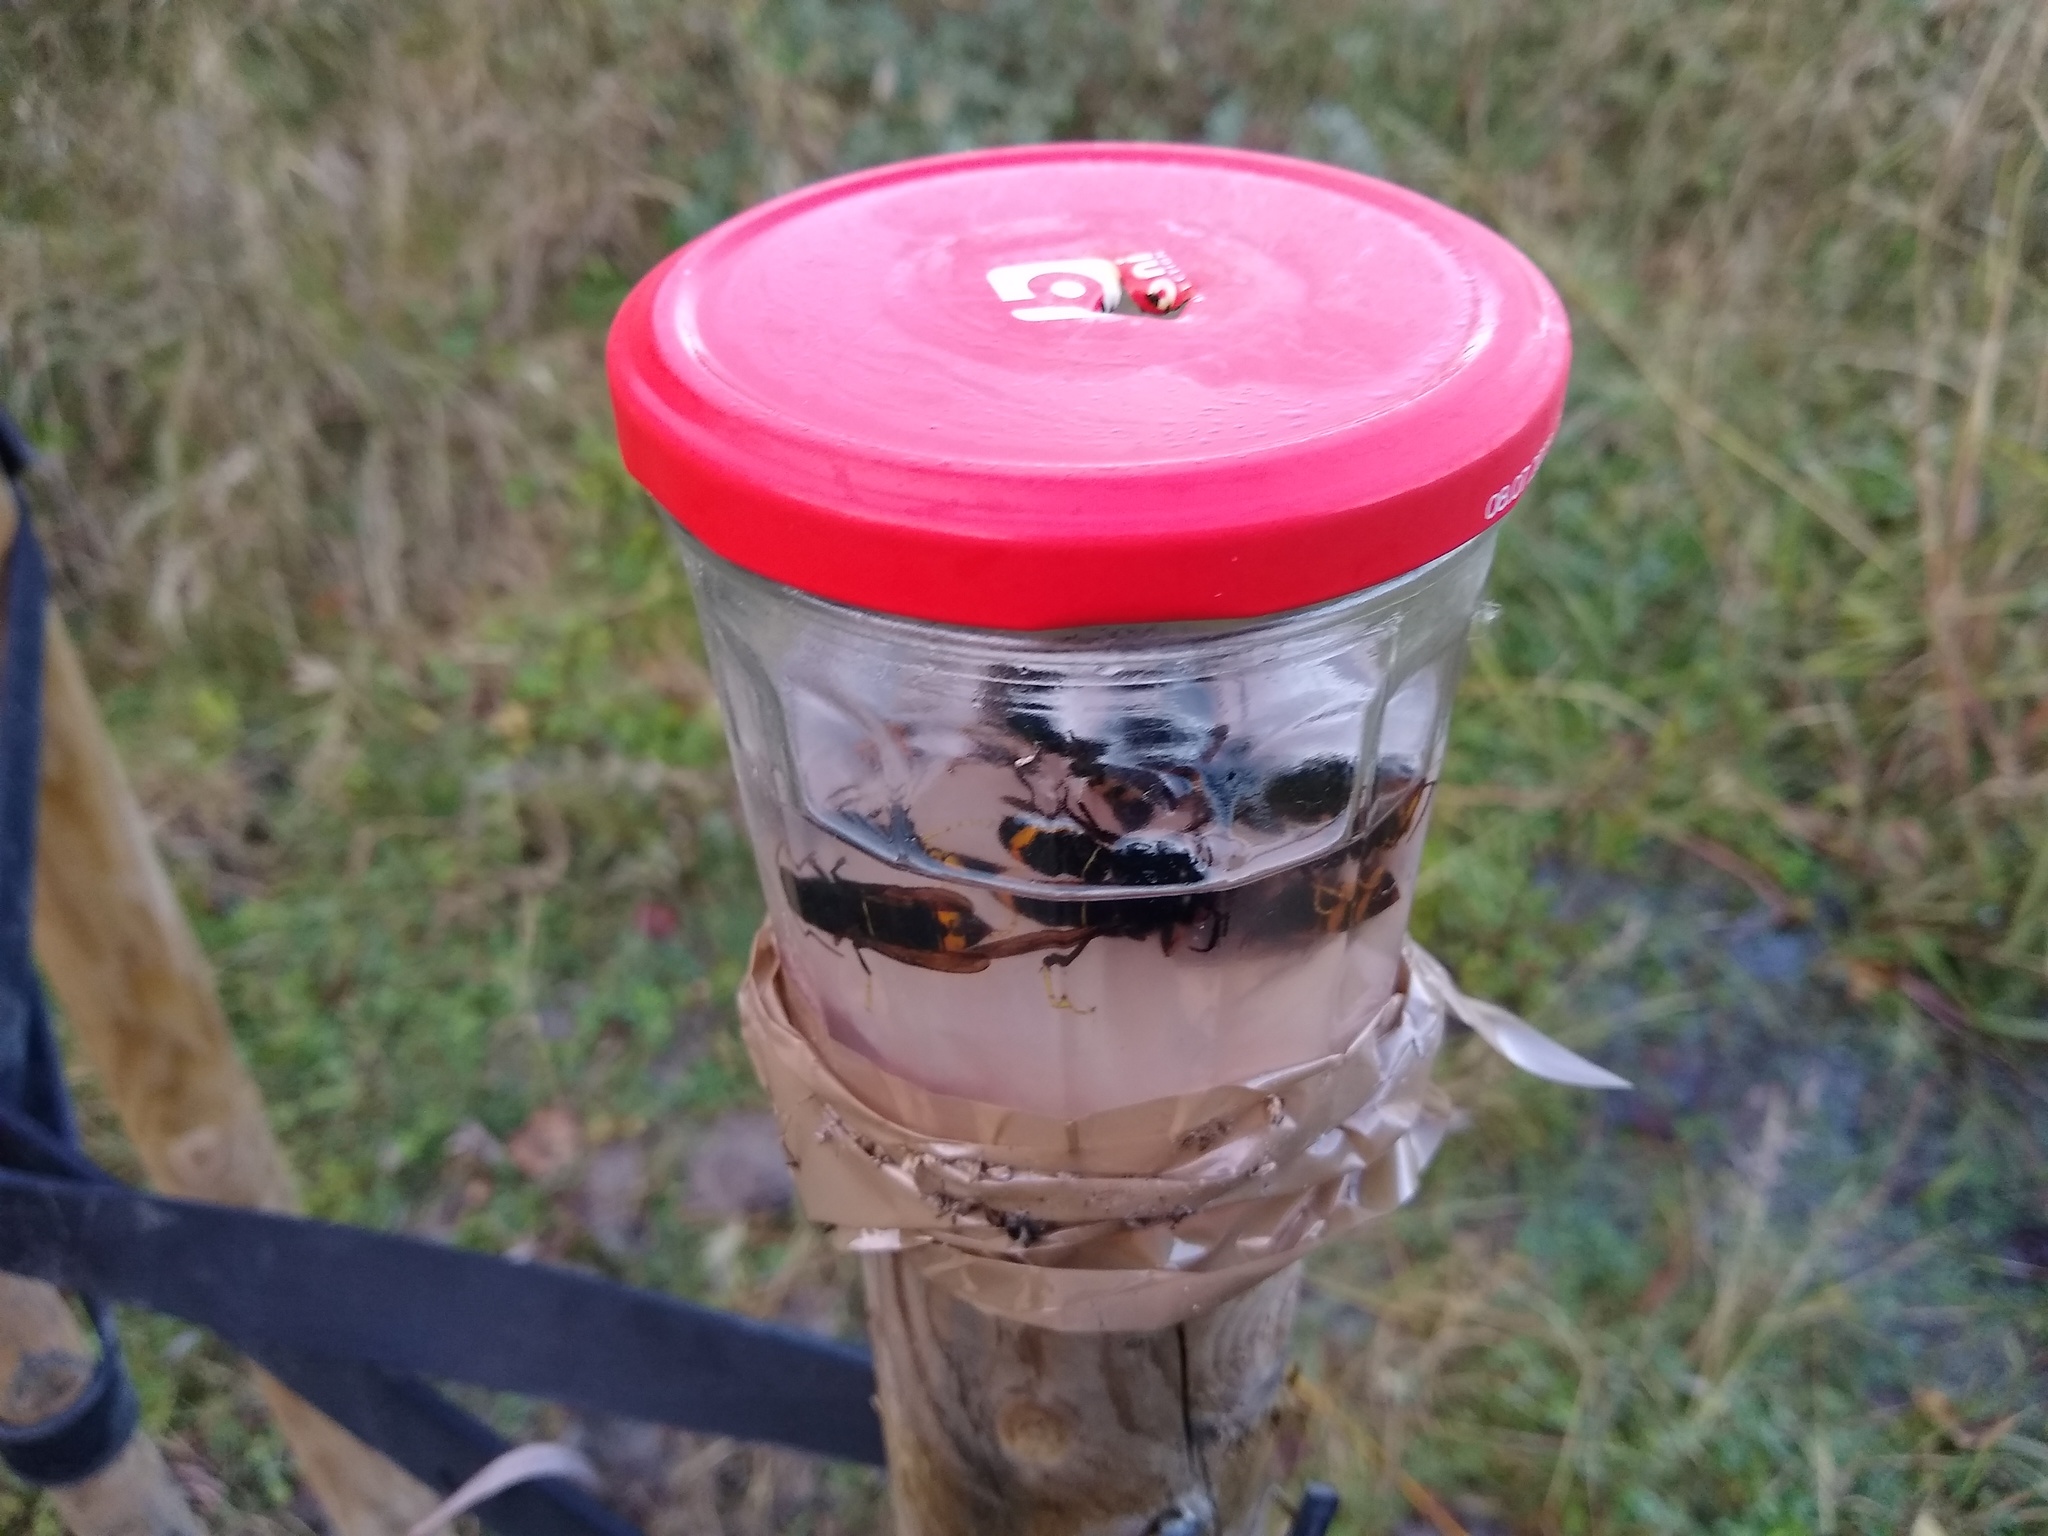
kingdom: Animalia
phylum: Arthropoda
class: Insecta
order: Hymenoptera
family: Vespidae
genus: Vespa
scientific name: Vespa velutina
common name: Asian hornet
